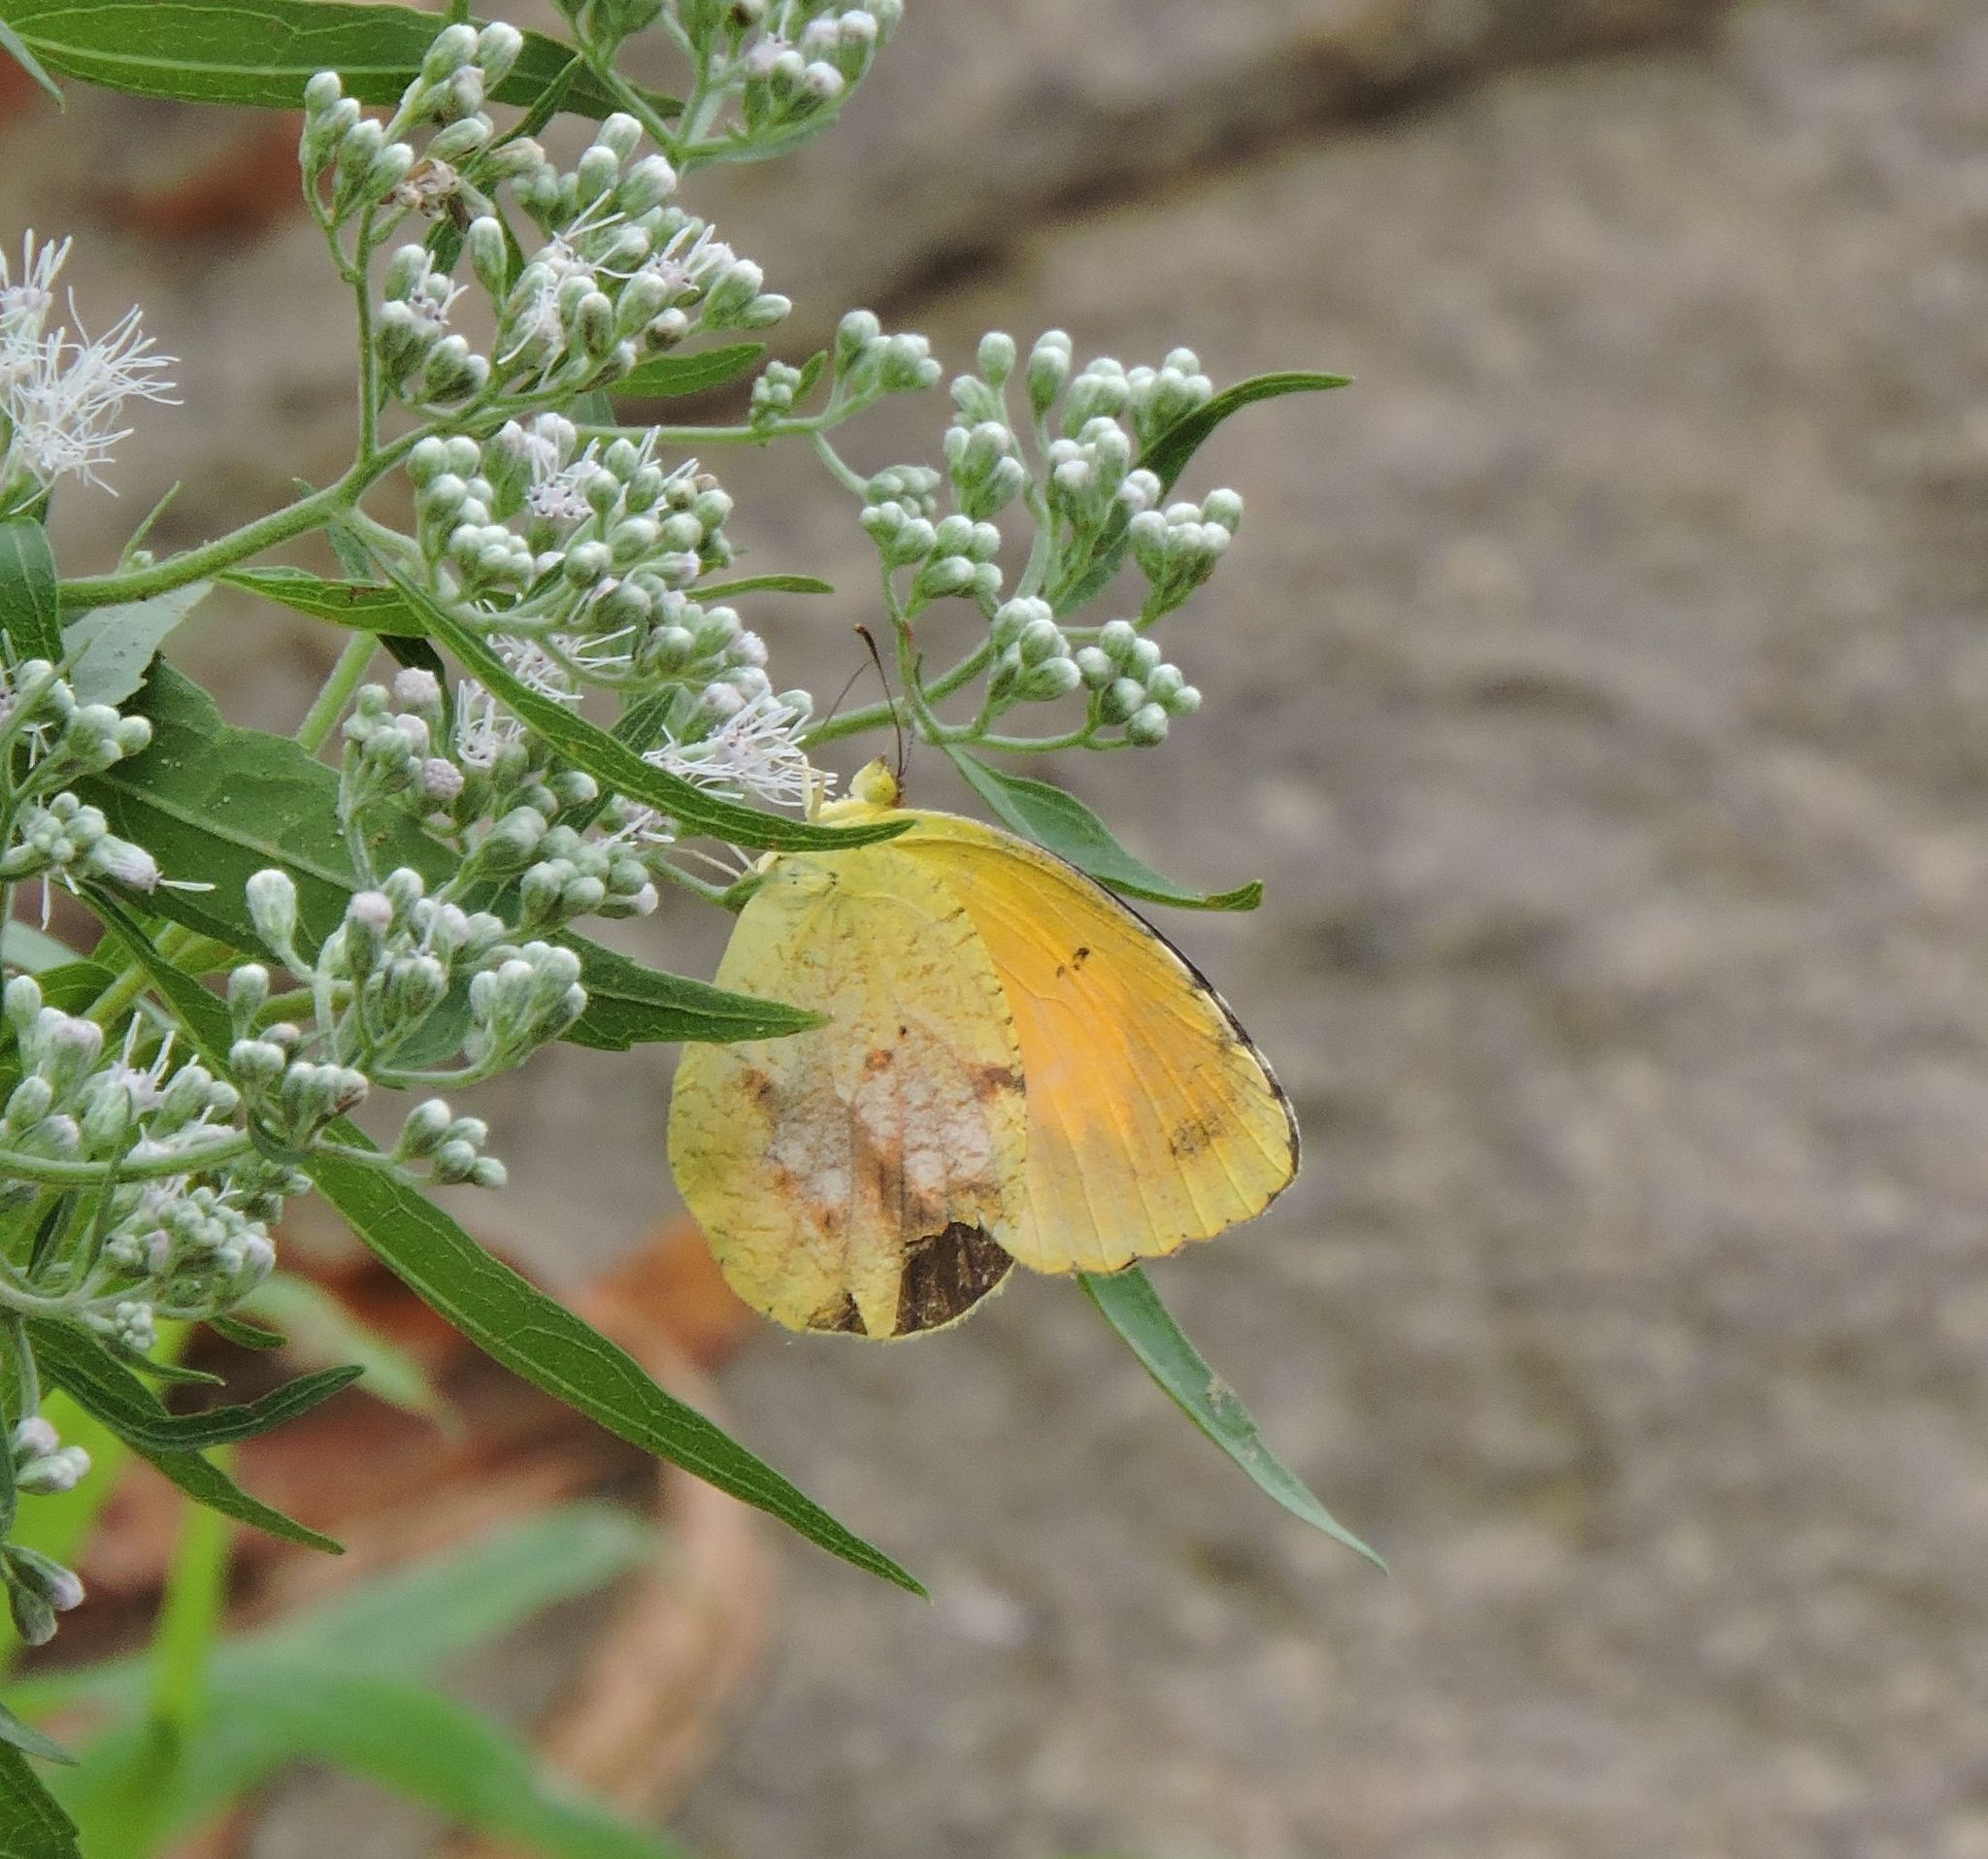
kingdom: Animalia
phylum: Arthropoda
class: Insecta
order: Lepidoptera
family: Pieridae
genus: Abaeis
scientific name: Abaeis nicippe
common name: Sleepy orange
